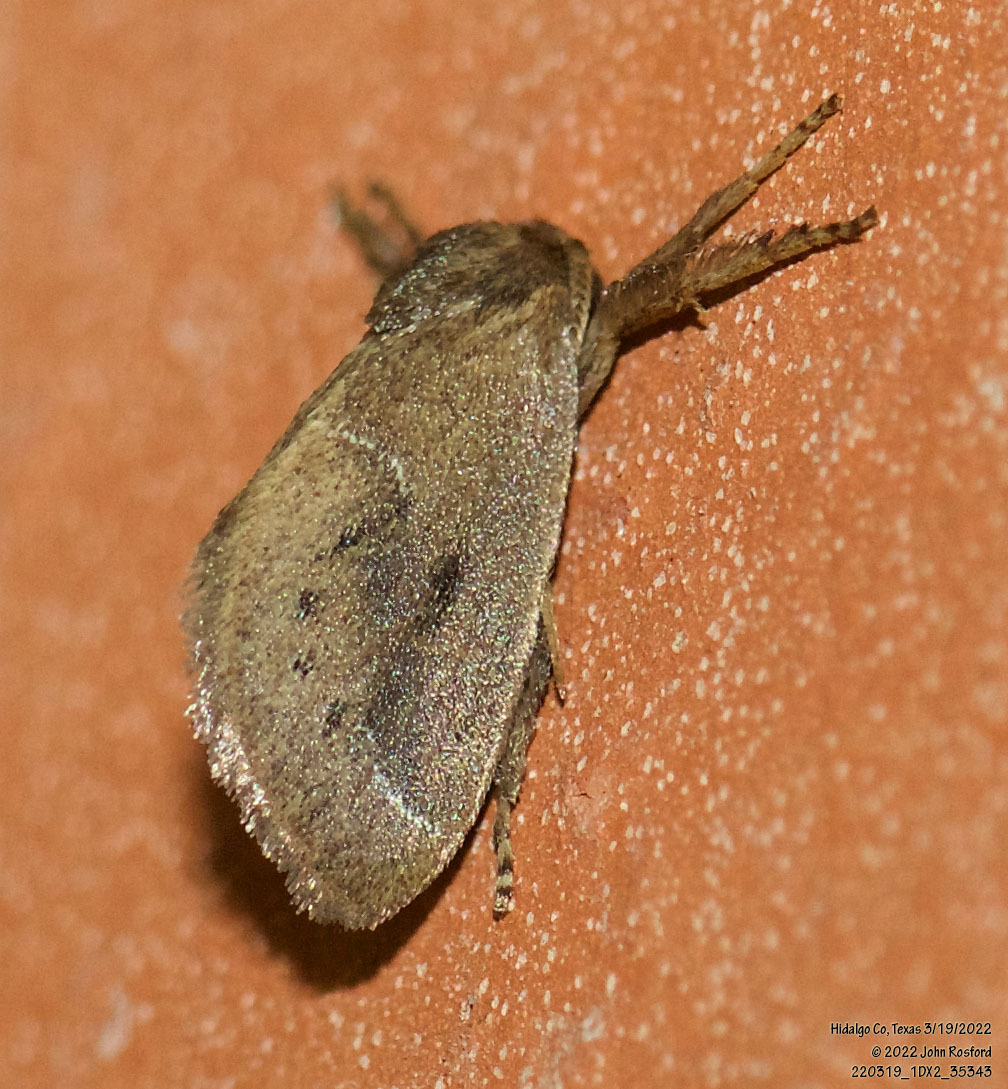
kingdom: Animalia
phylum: Arthropoda
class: Insecta
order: Lepidoptera
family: Limacodidae
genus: Adoneta
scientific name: Adoneta gemina
